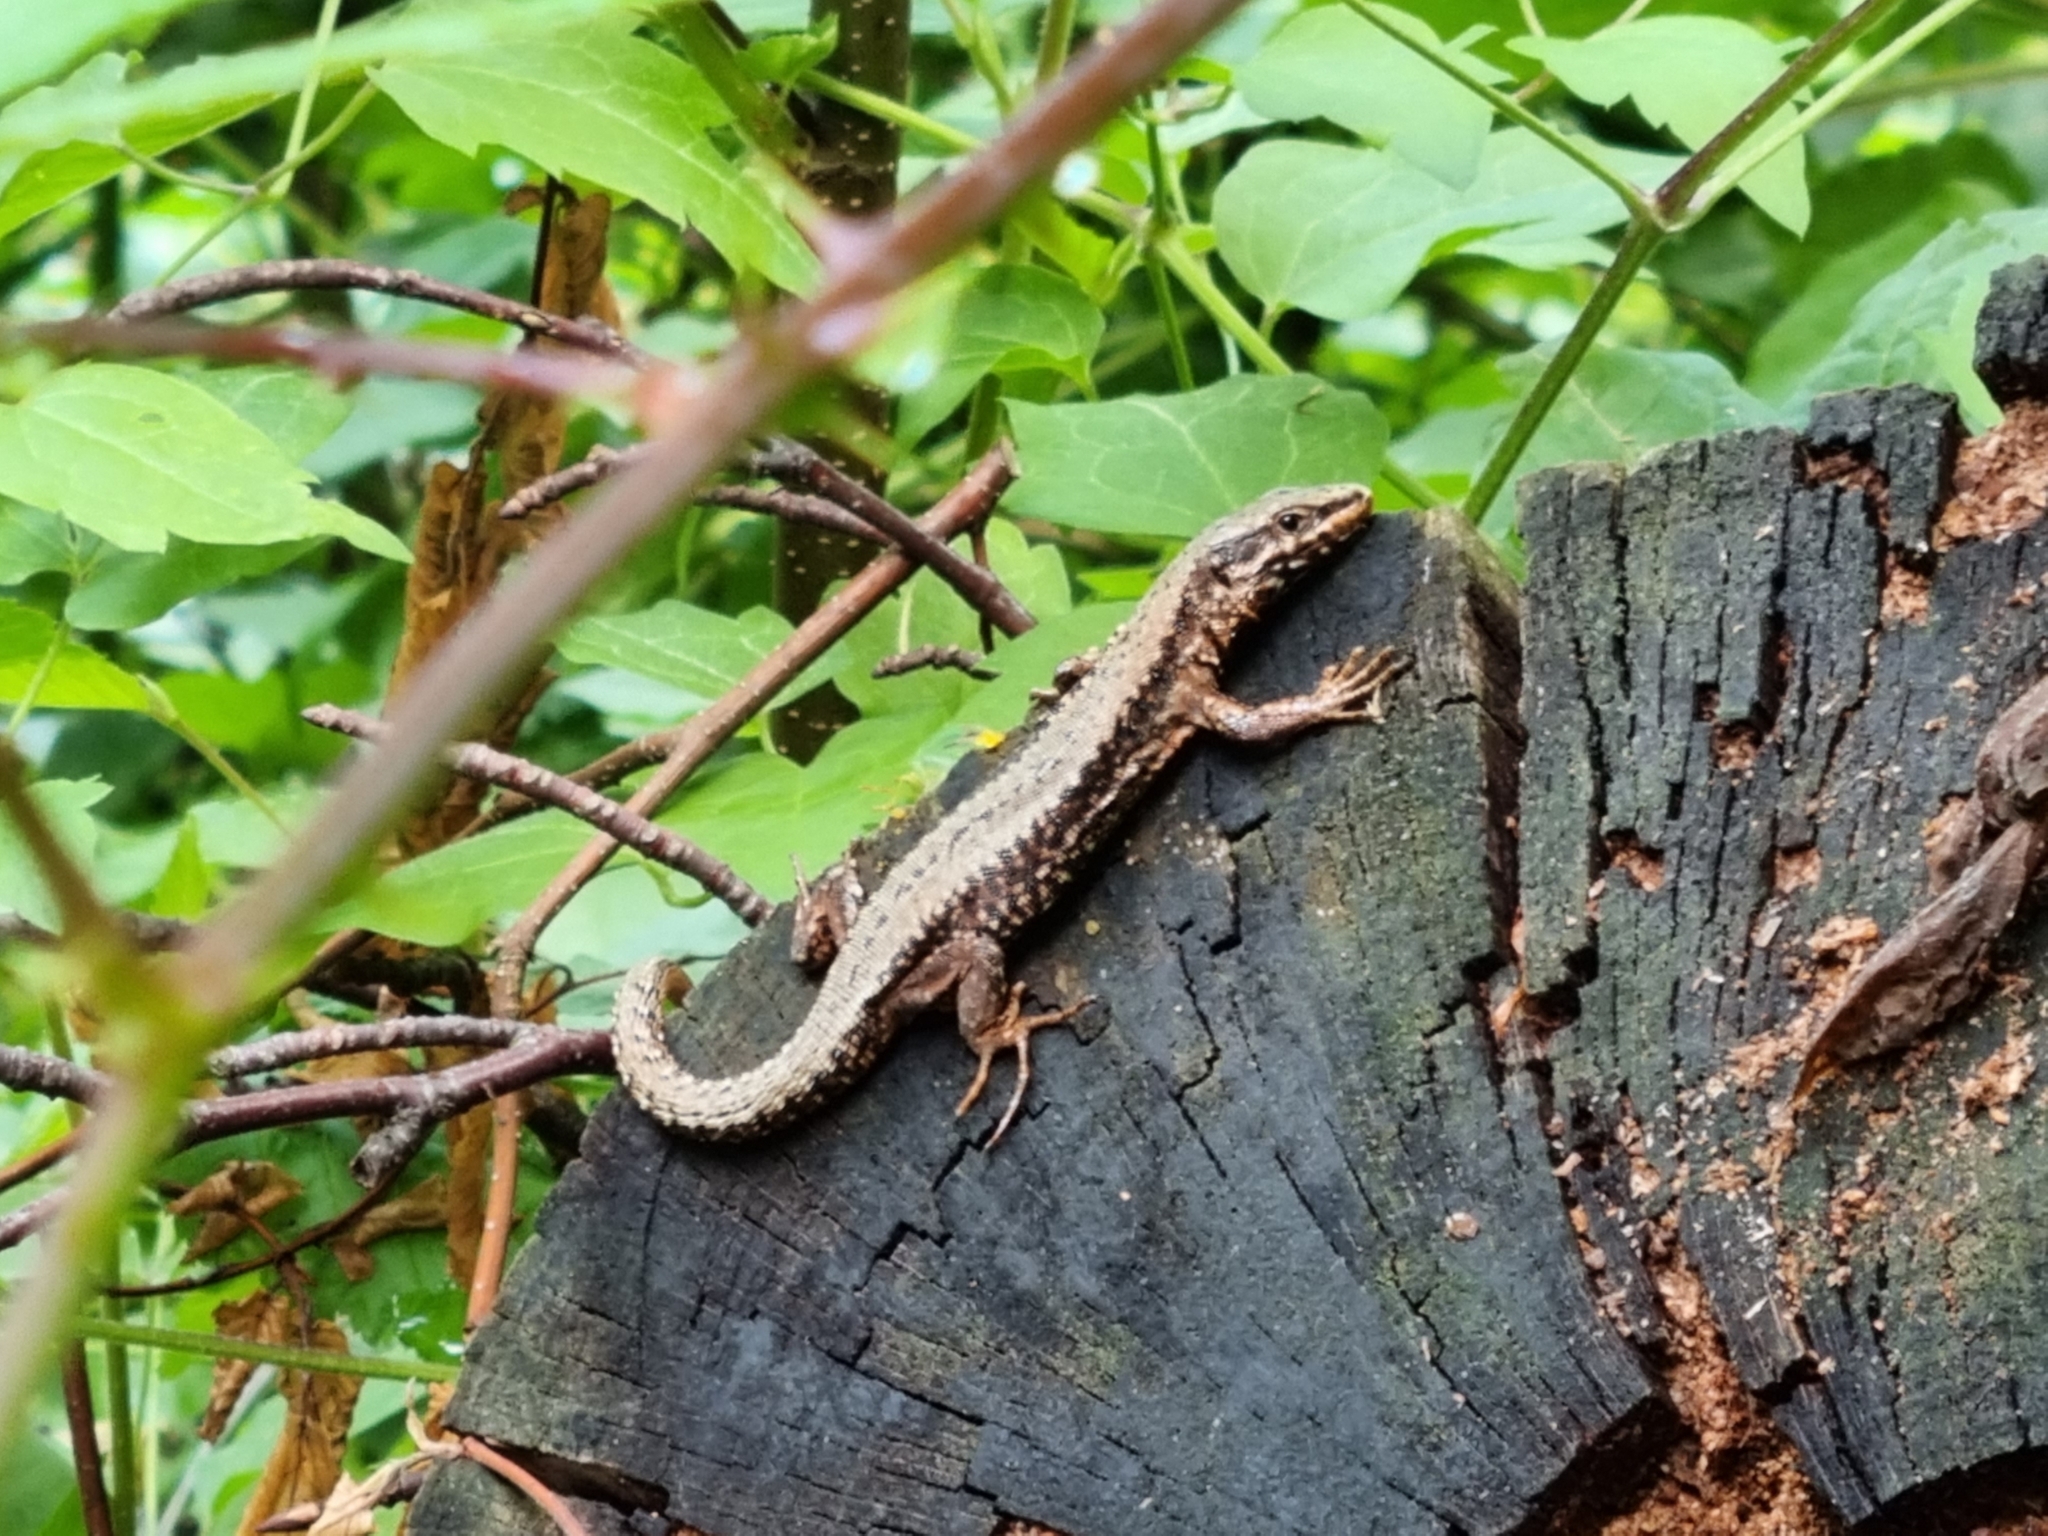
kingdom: Animalia
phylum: Chordata
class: Squamata
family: Lacertidae
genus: Podarcis
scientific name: Podarcis muralis
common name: Common wall lizard
